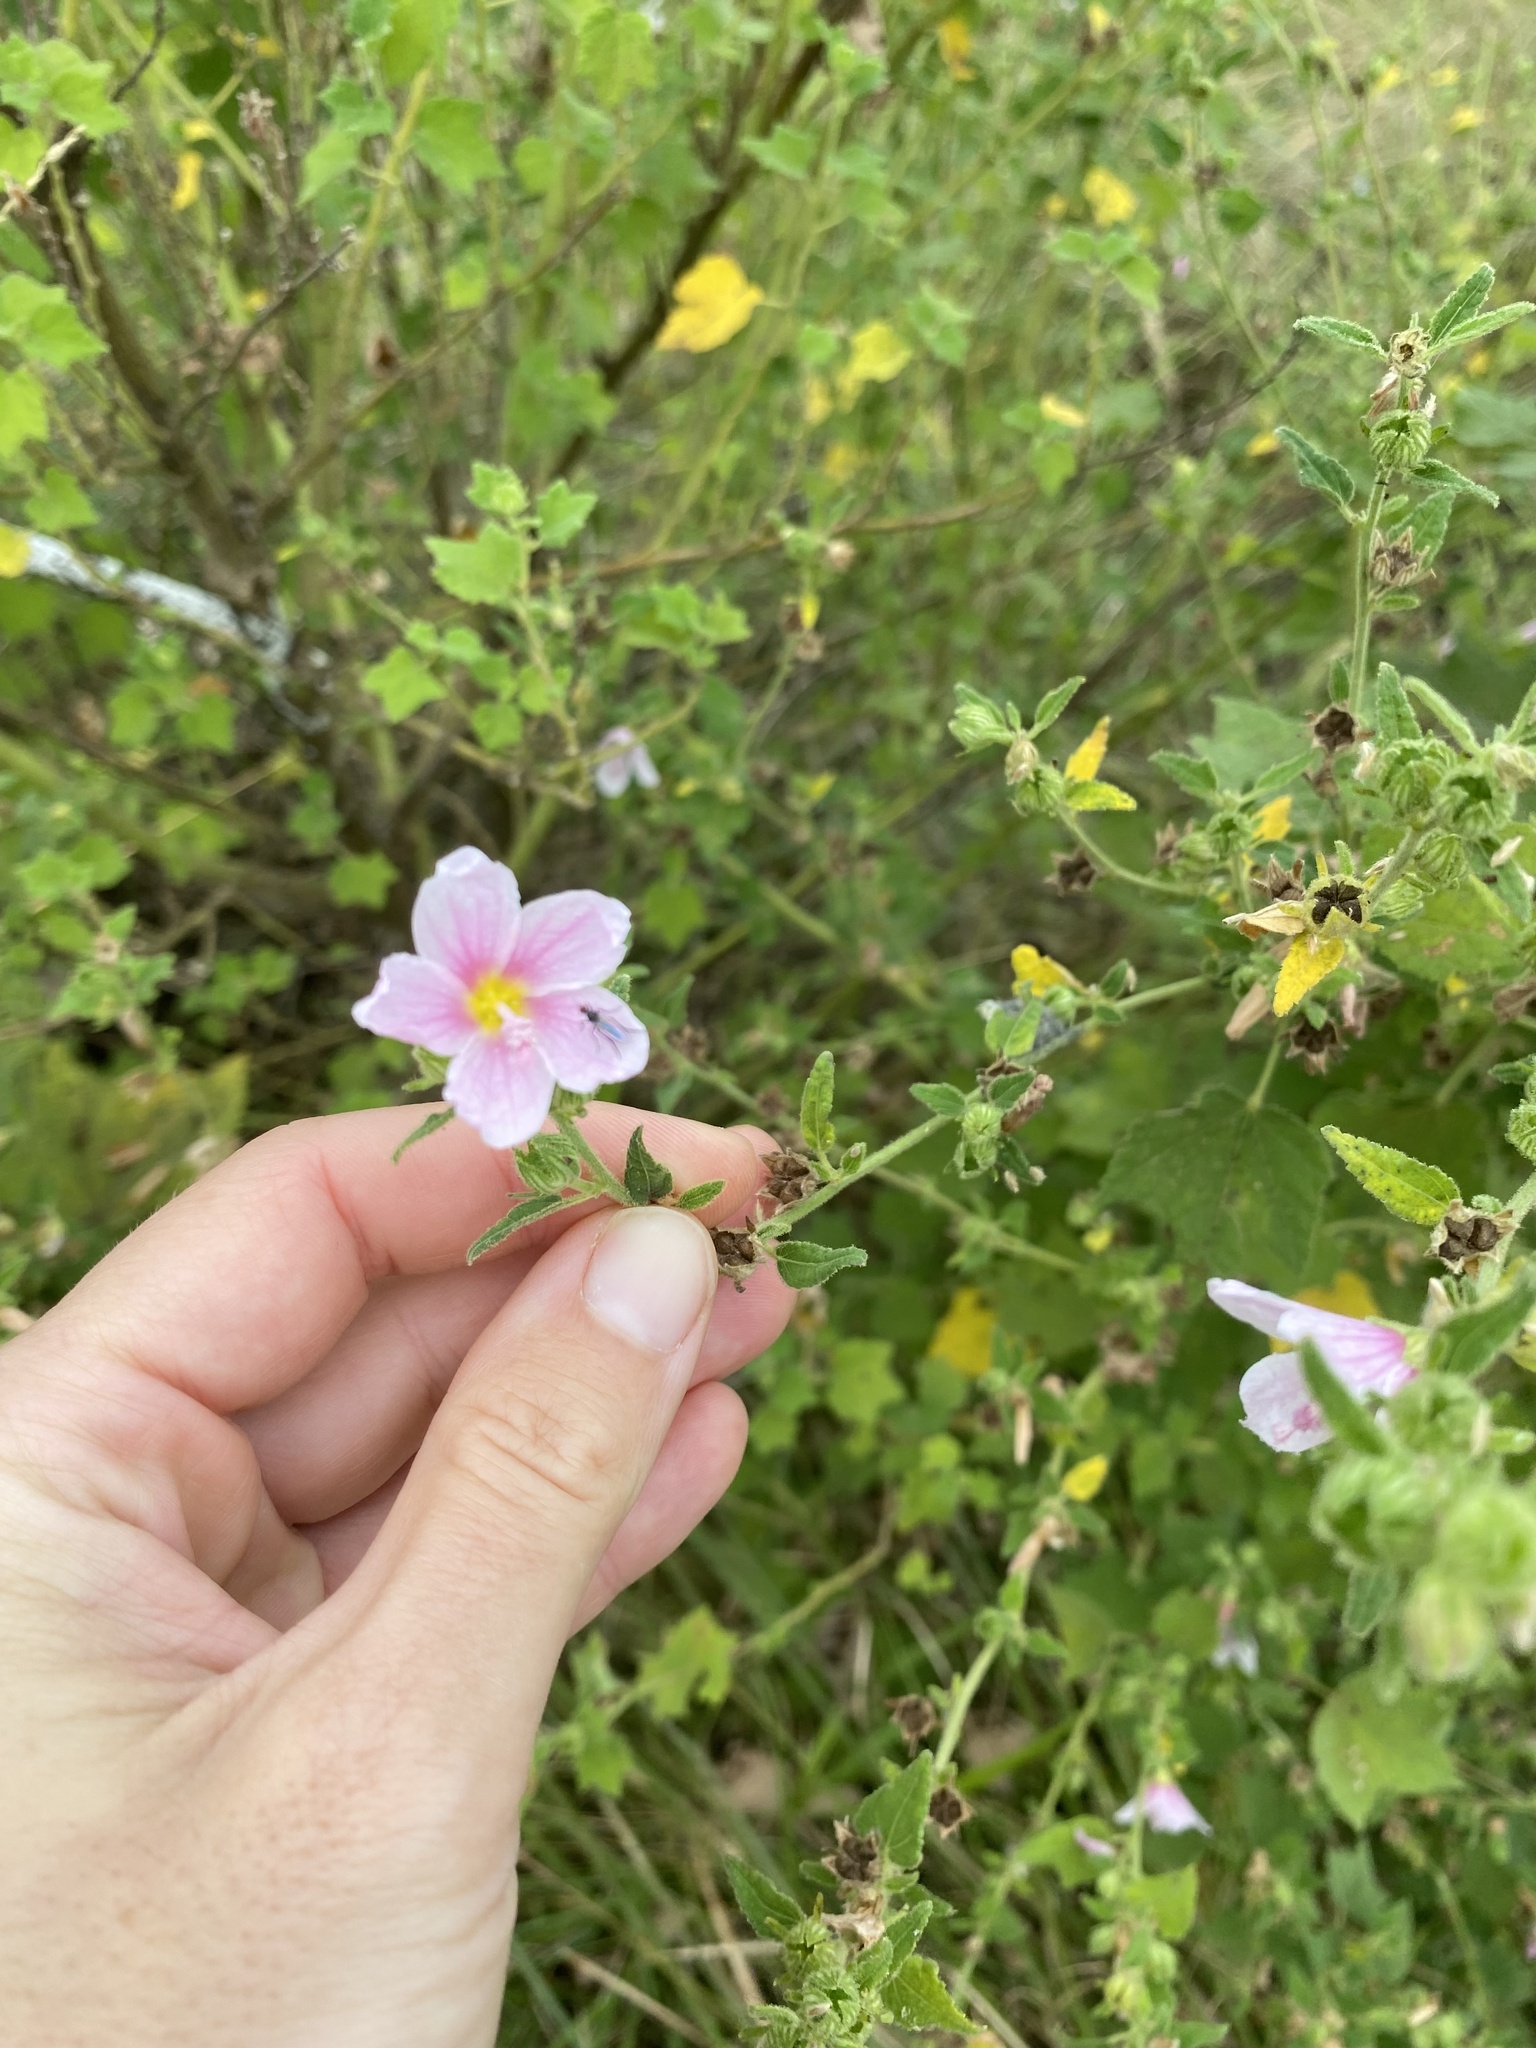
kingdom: Plantae
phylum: Tracheophyta
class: Magnoliopsida
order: Malvales
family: Malvaceae
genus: Pavonia
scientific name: Pavonia columella
